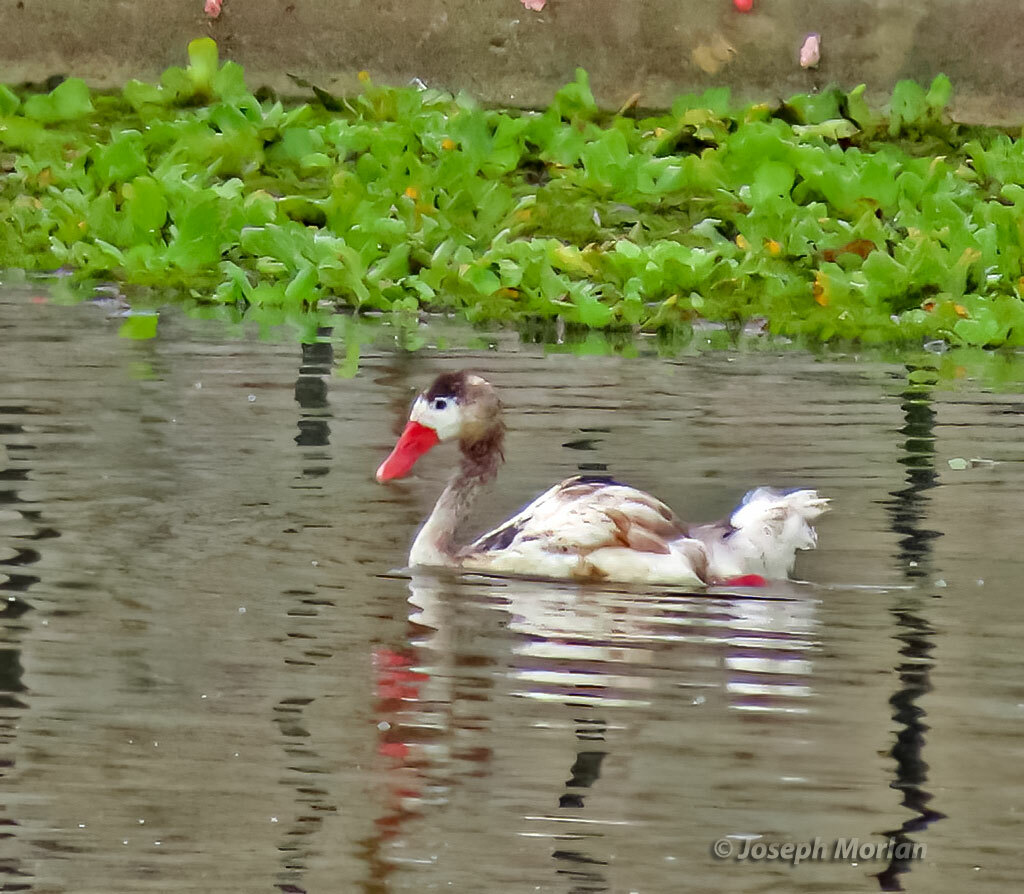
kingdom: Animalia
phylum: Chordata
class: Aves
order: Anseriformes
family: Anatidae
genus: Coscoroba
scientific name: Coscoroba coscoroba
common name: Coscoroba swan
